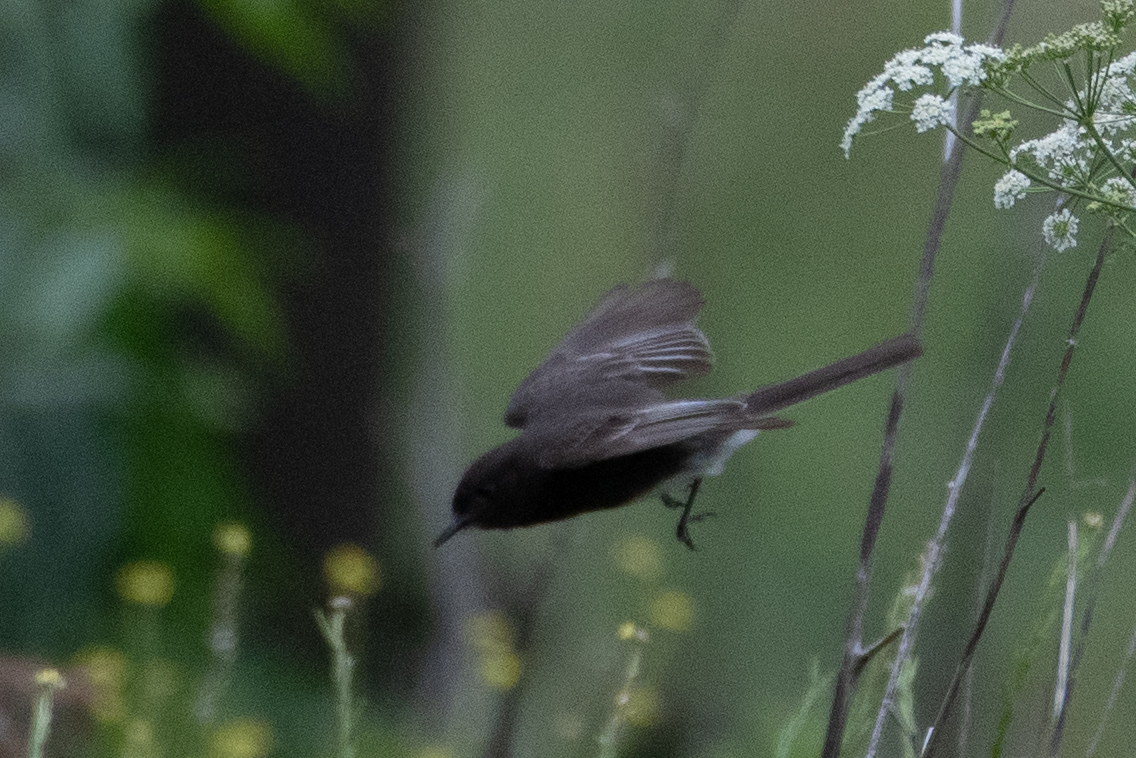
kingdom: Animalia
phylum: Chordata
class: Aves
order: Passeriformes
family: Tyrannidae
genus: Sayornis
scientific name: Sayornis nigricans
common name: Black phoebe
